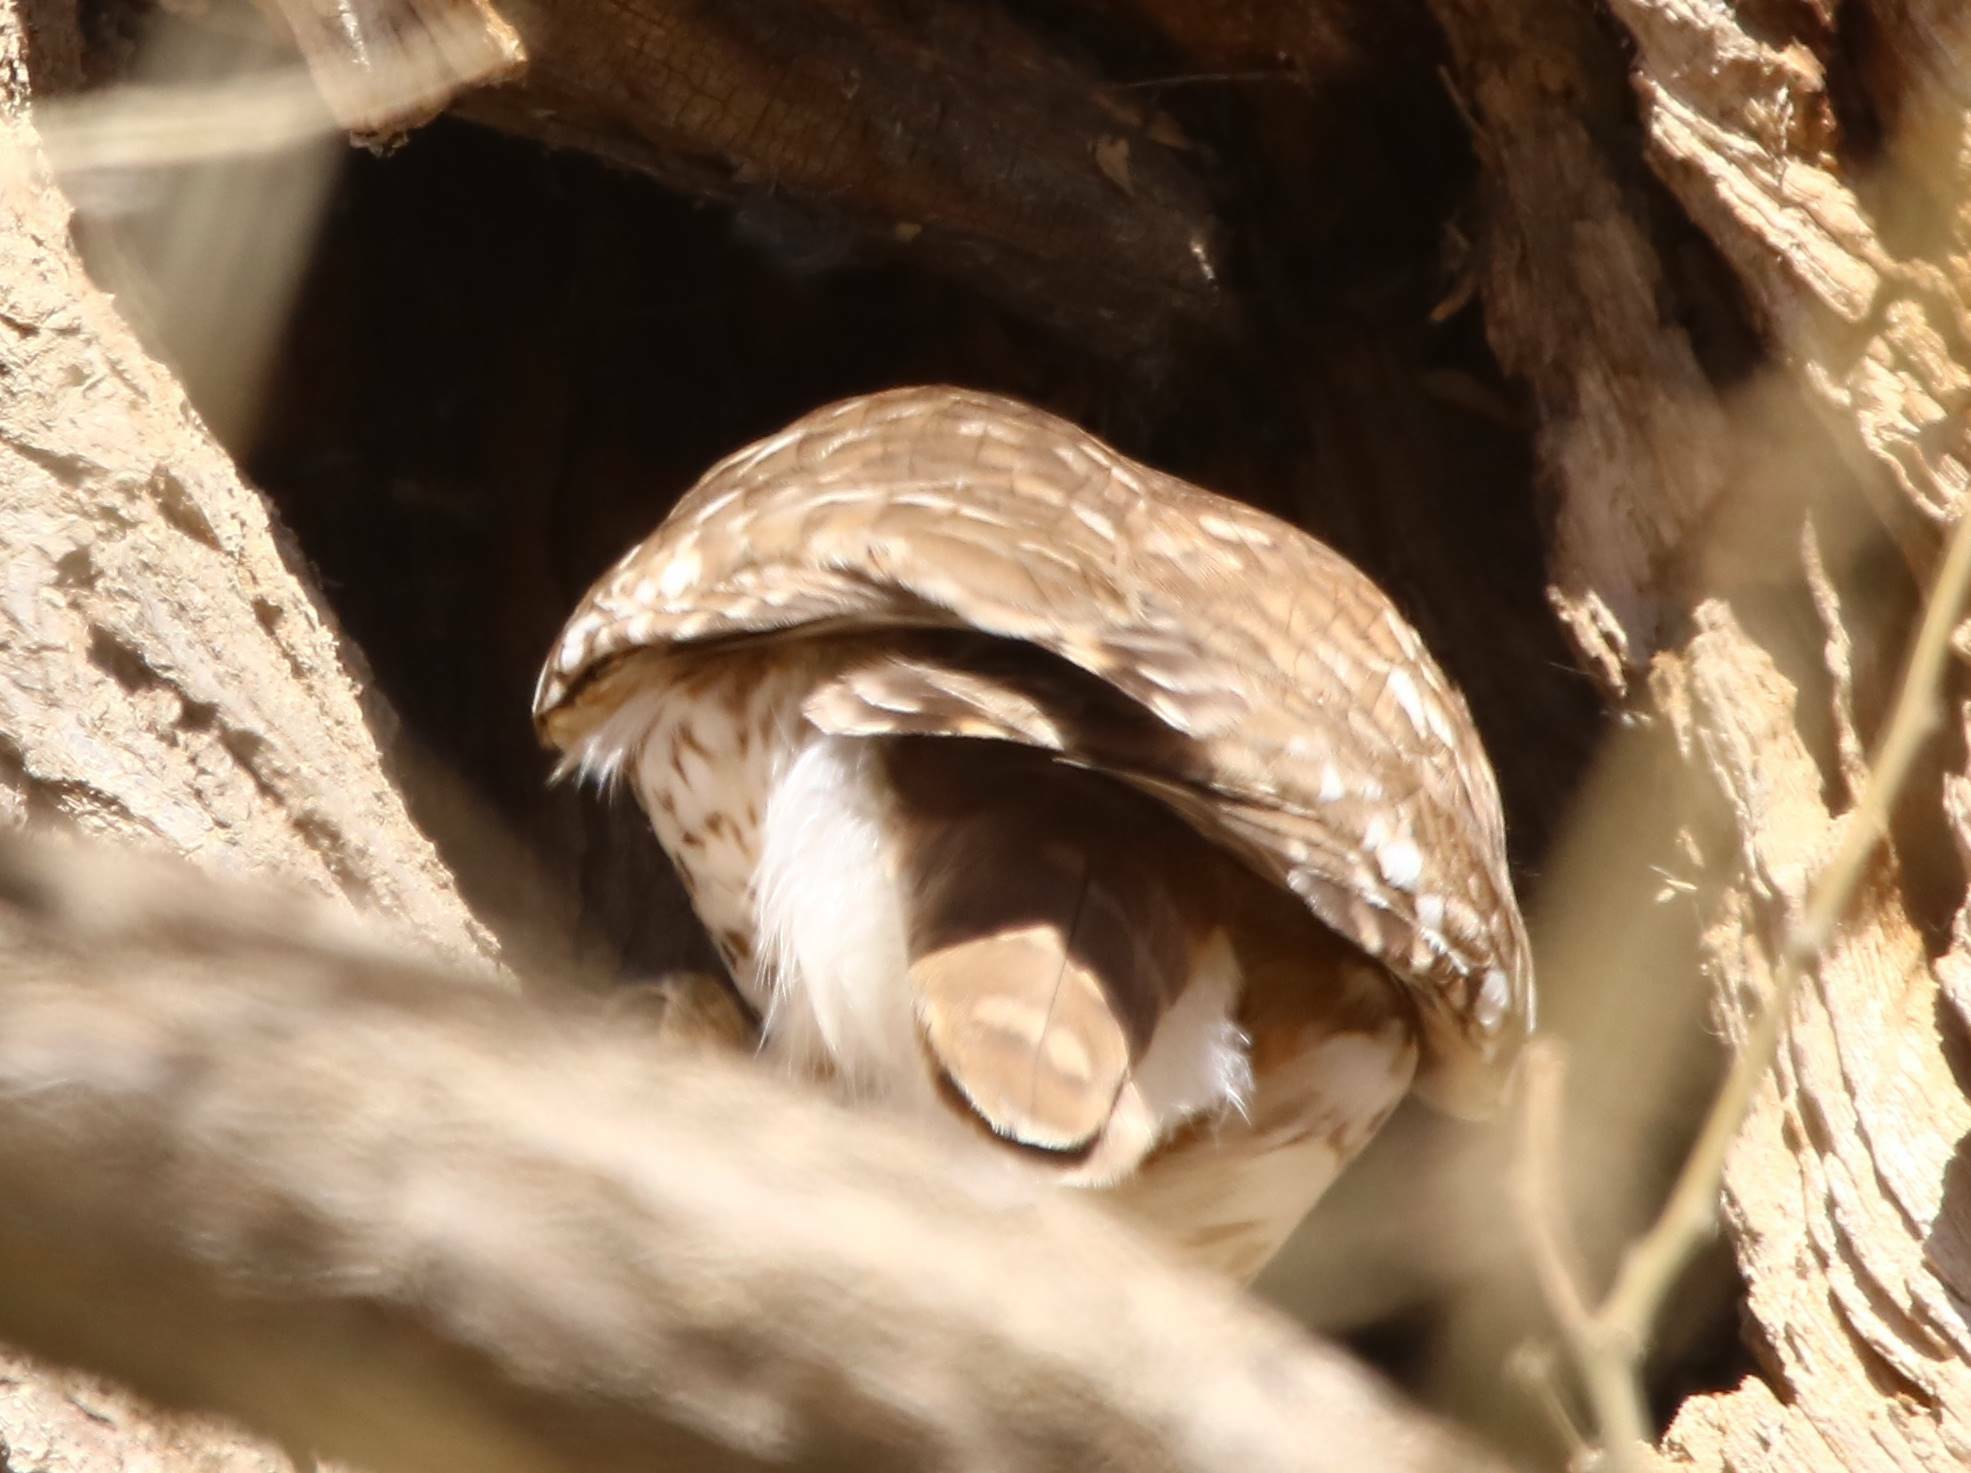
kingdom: Animalia
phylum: Chordata
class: Aves
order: Strigiformes
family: Strigidae
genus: Athene
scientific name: Athene noctua
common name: Little owl
